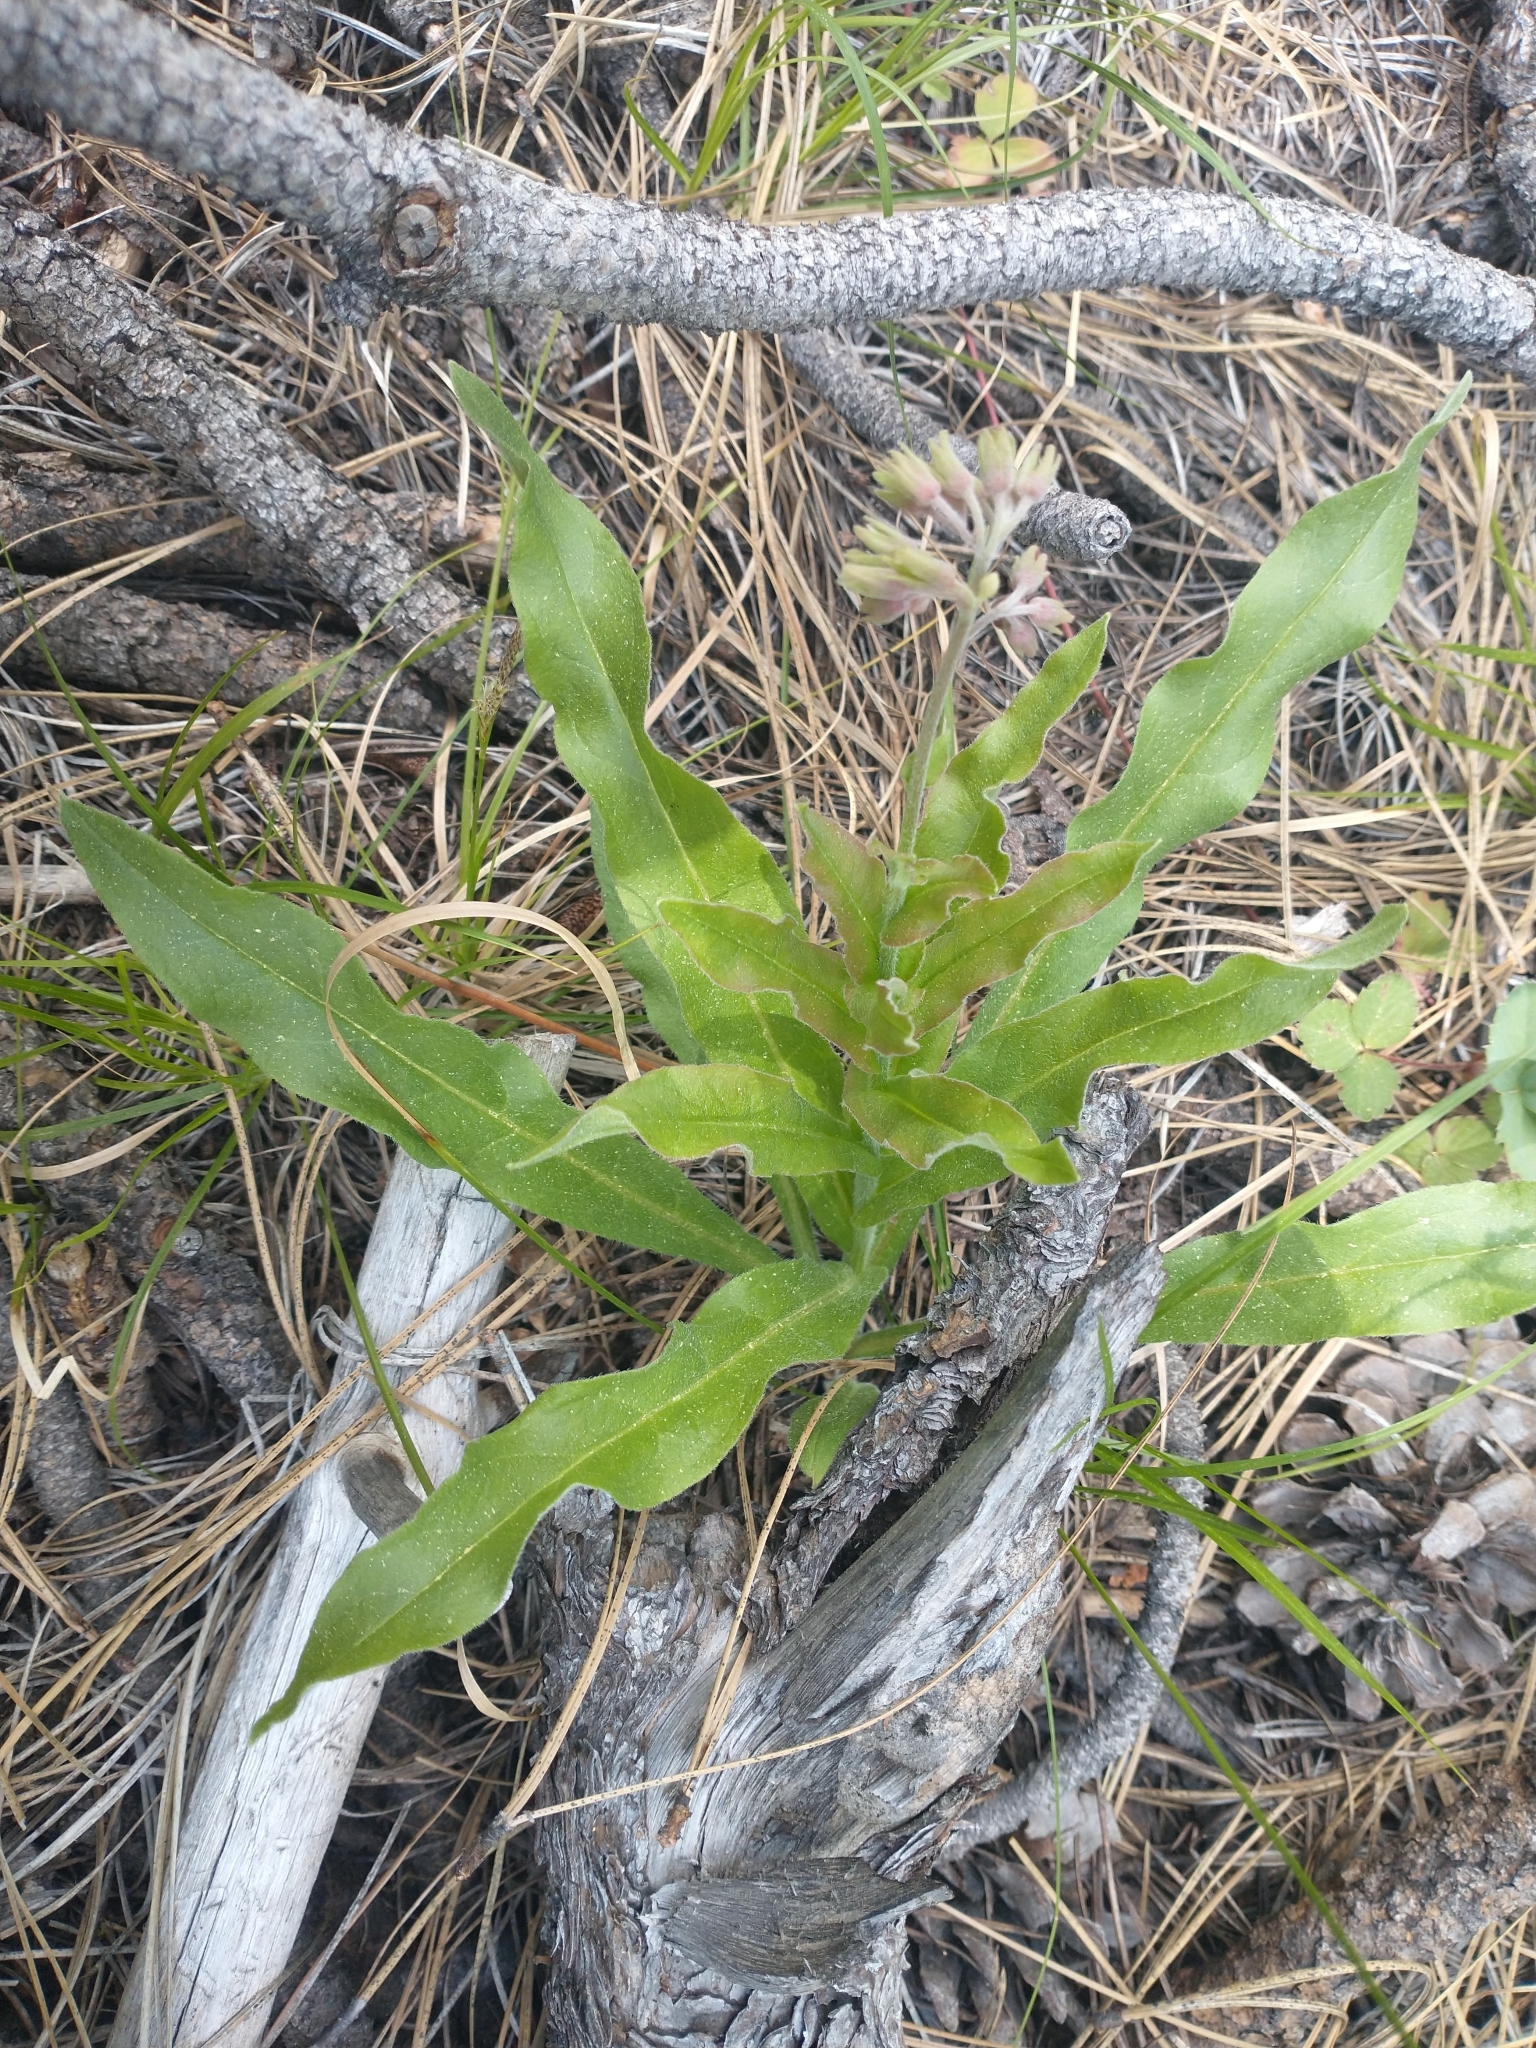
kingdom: Plantae
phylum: Tracheophyta
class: Magnoliopsida
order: Boraginales
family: Boraginaceae
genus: Andersonglossum
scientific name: Andersonglossum occidentale
